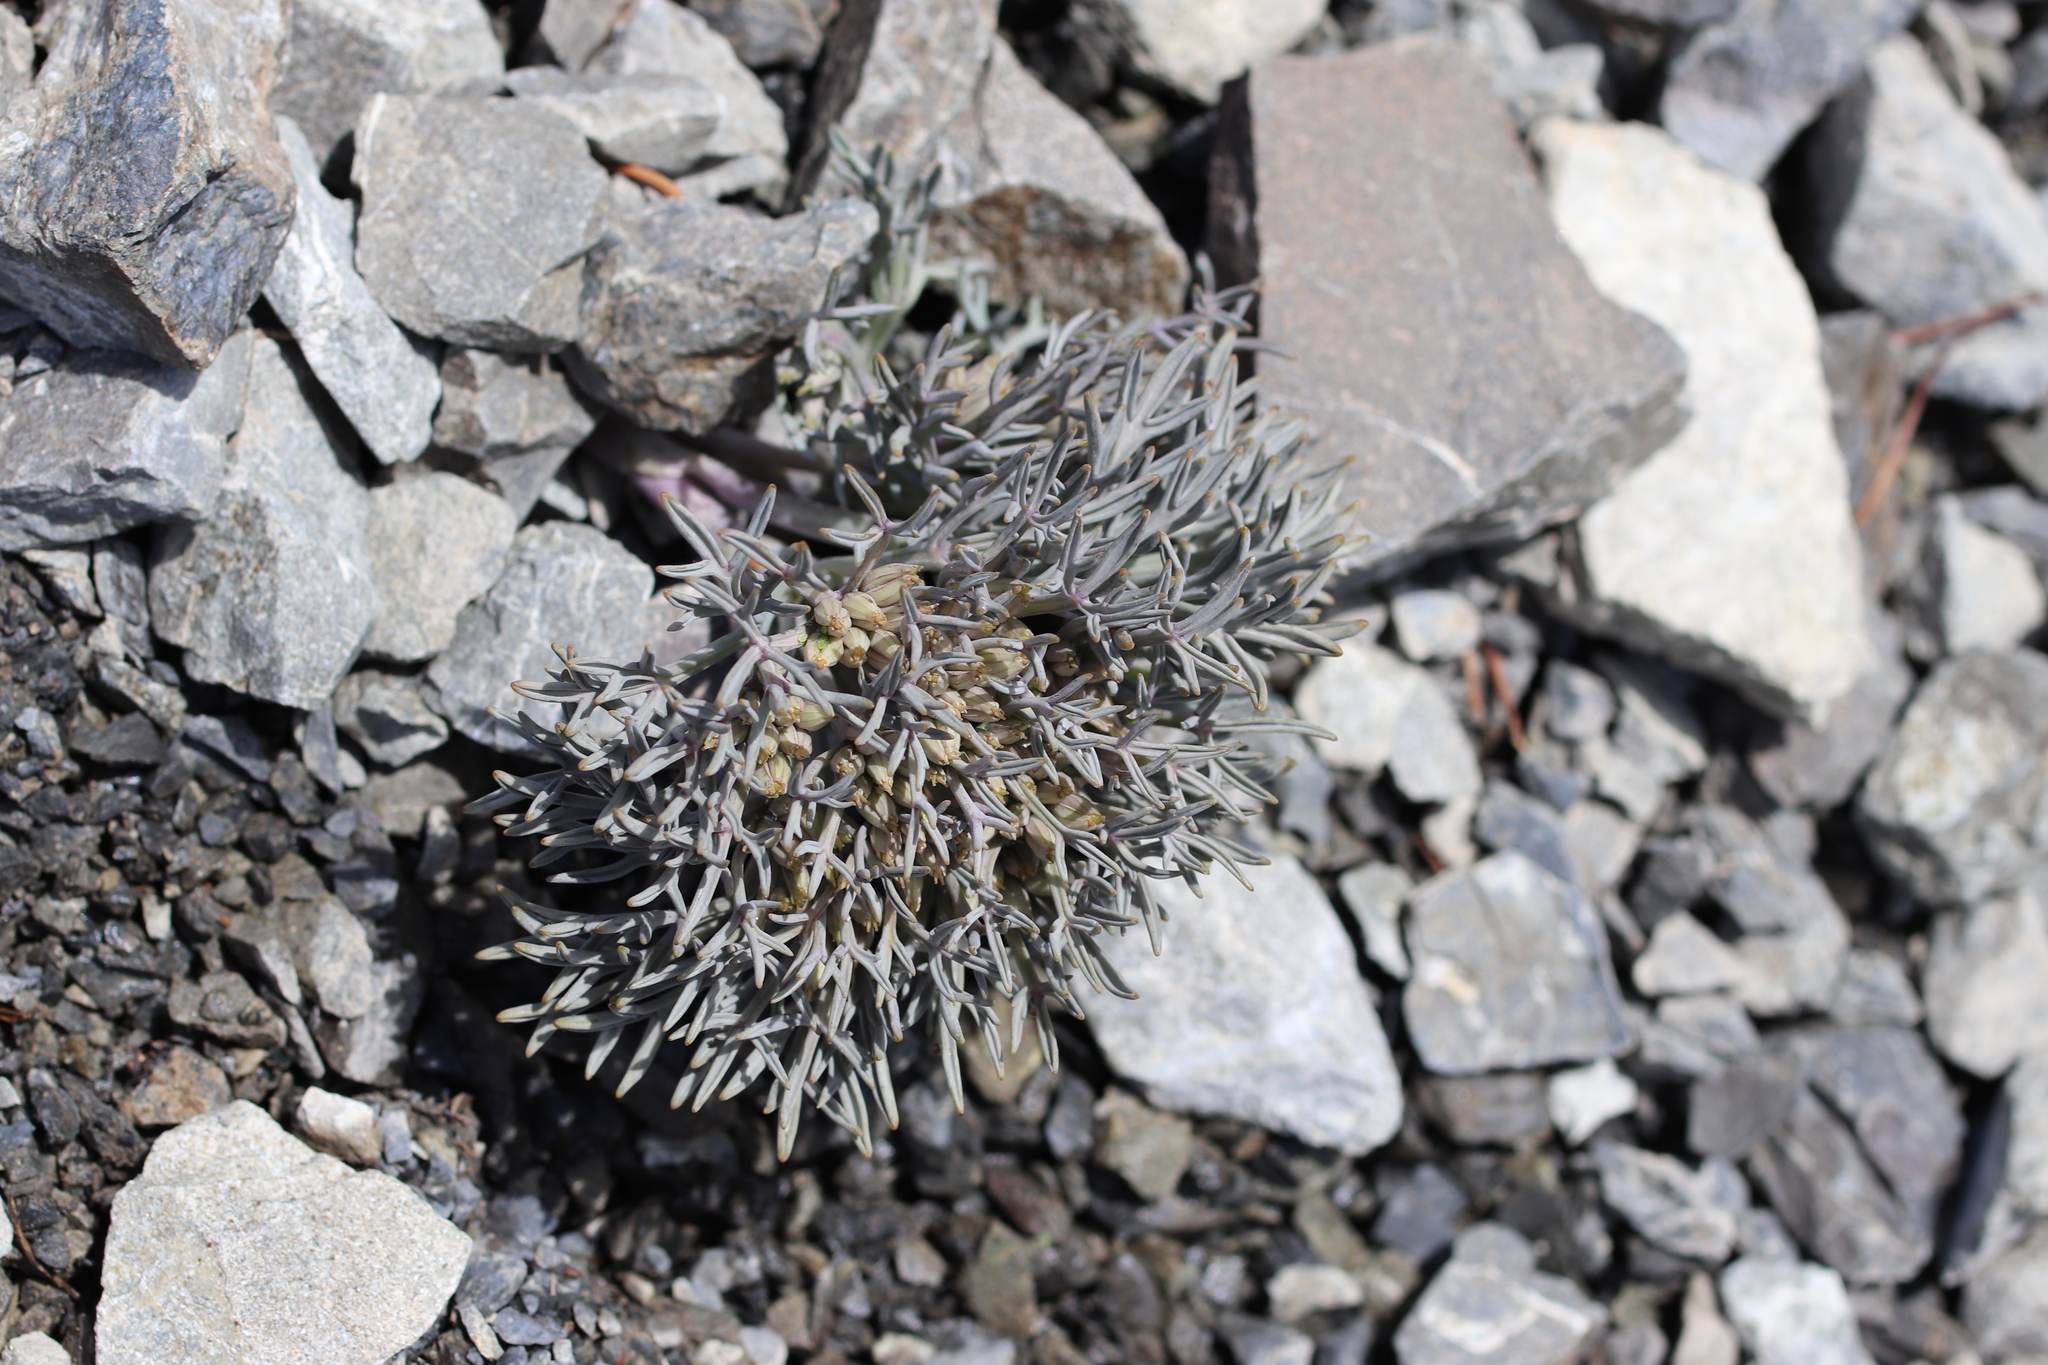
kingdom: Plantae
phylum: Tracheophyta
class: Magnoliopsida
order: Apiales
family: Apiaceae
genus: Lignocarpa
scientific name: Lignocarpa carnosula
